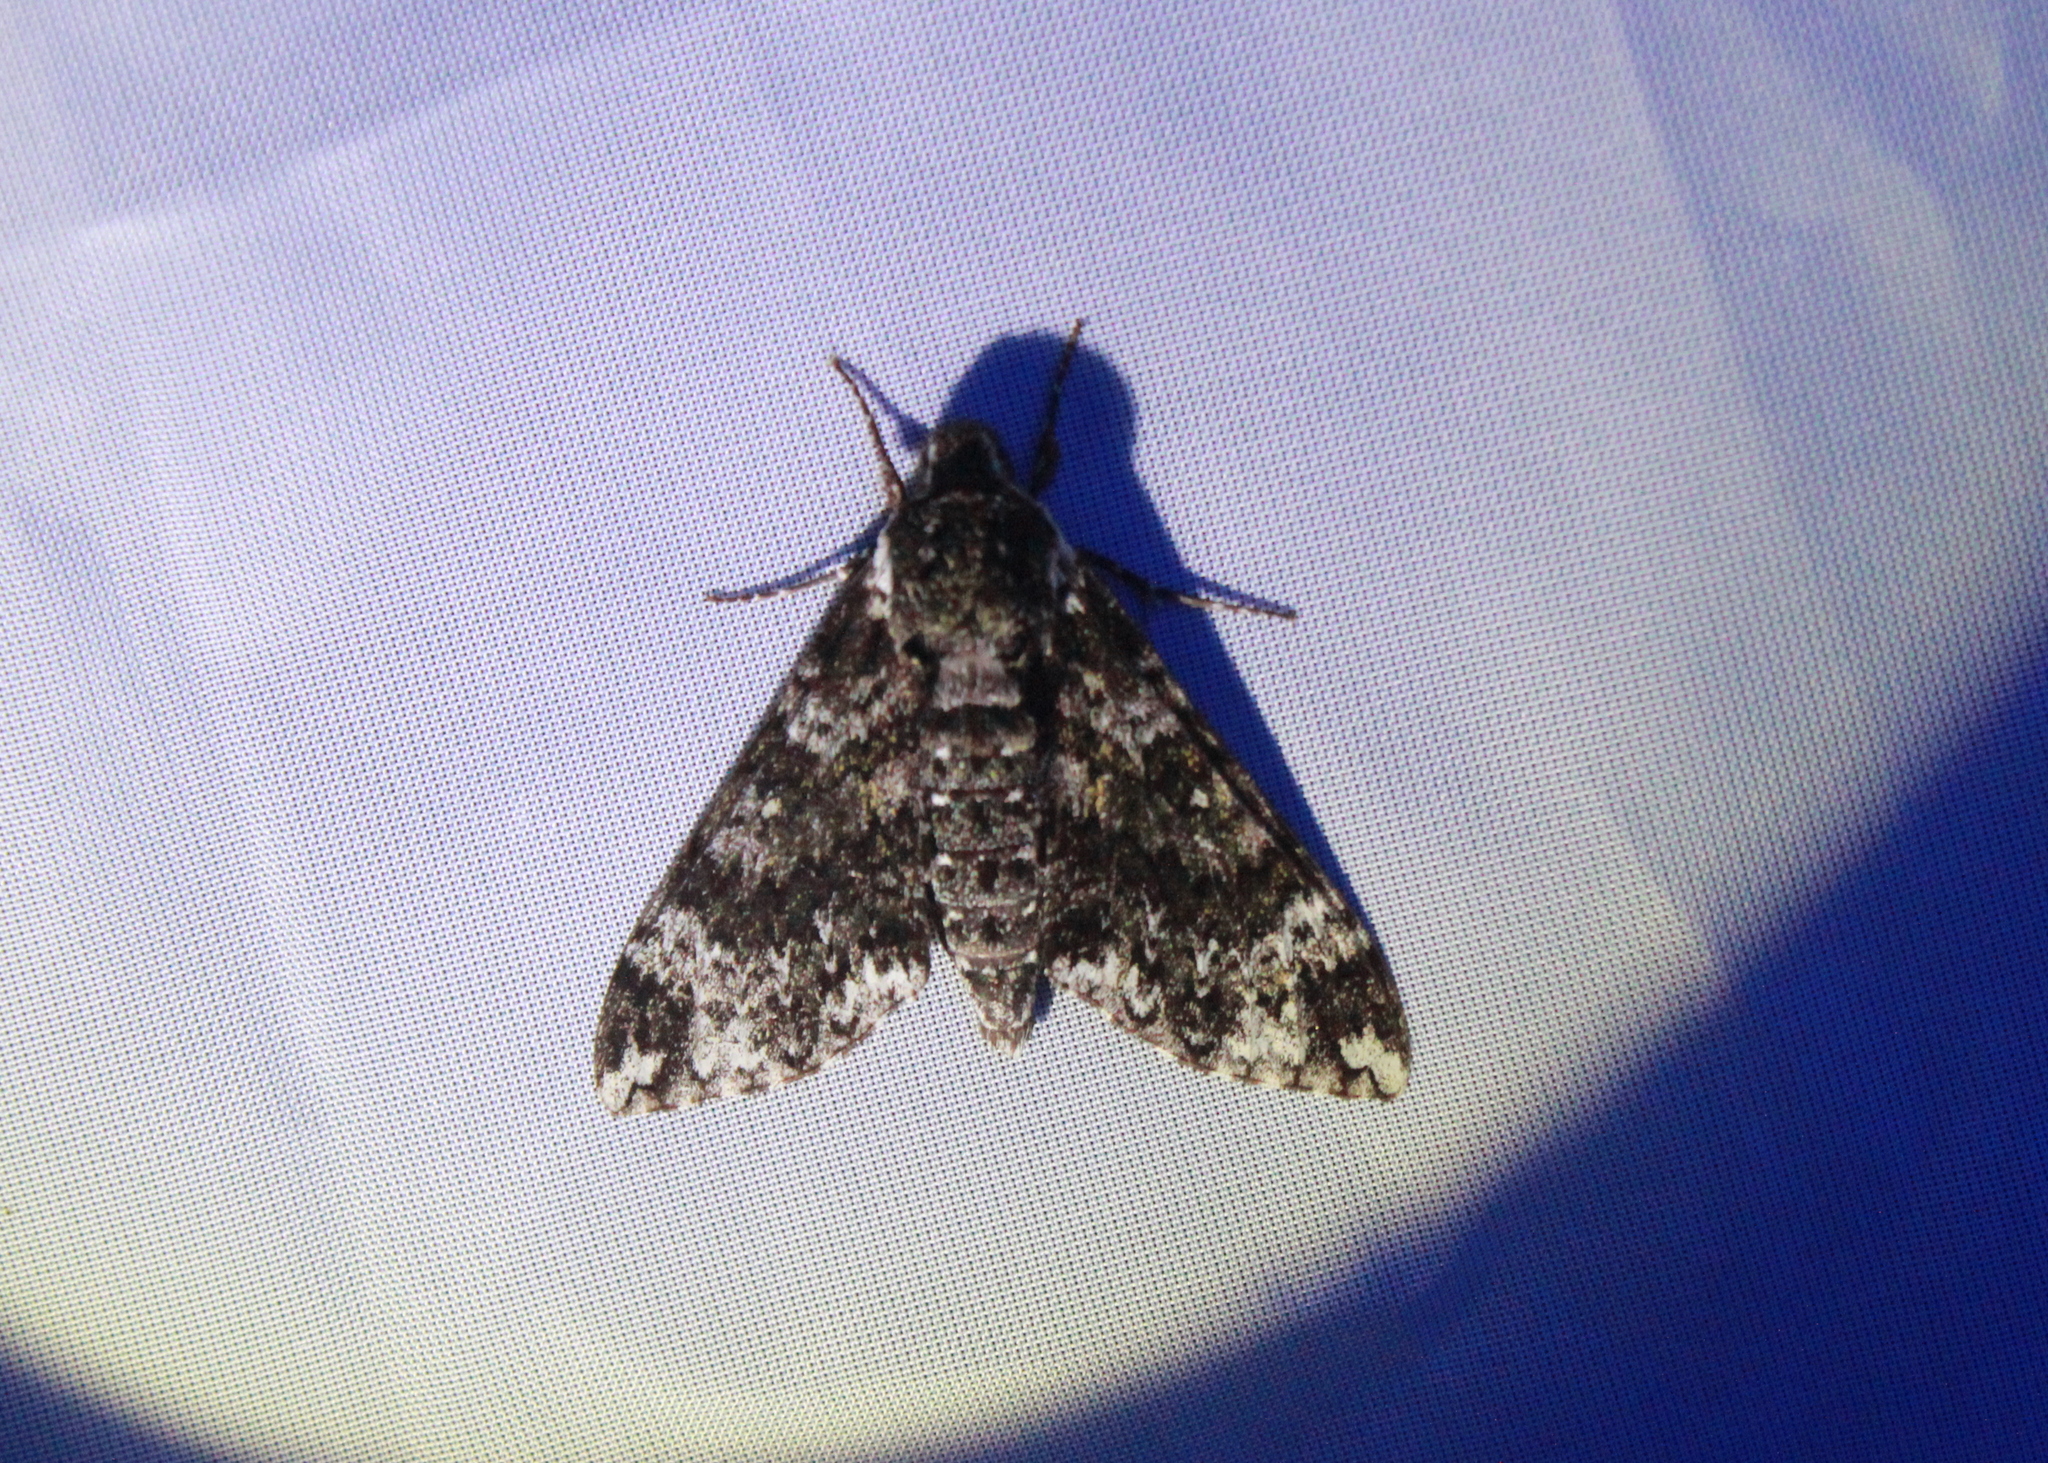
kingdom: Animalia
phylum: Arthropoda
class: Insecta
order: Lepidoptera
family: Sphingidae
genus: Dolba
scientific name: Dolba hyloeus
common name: Pawpaw sphinx
